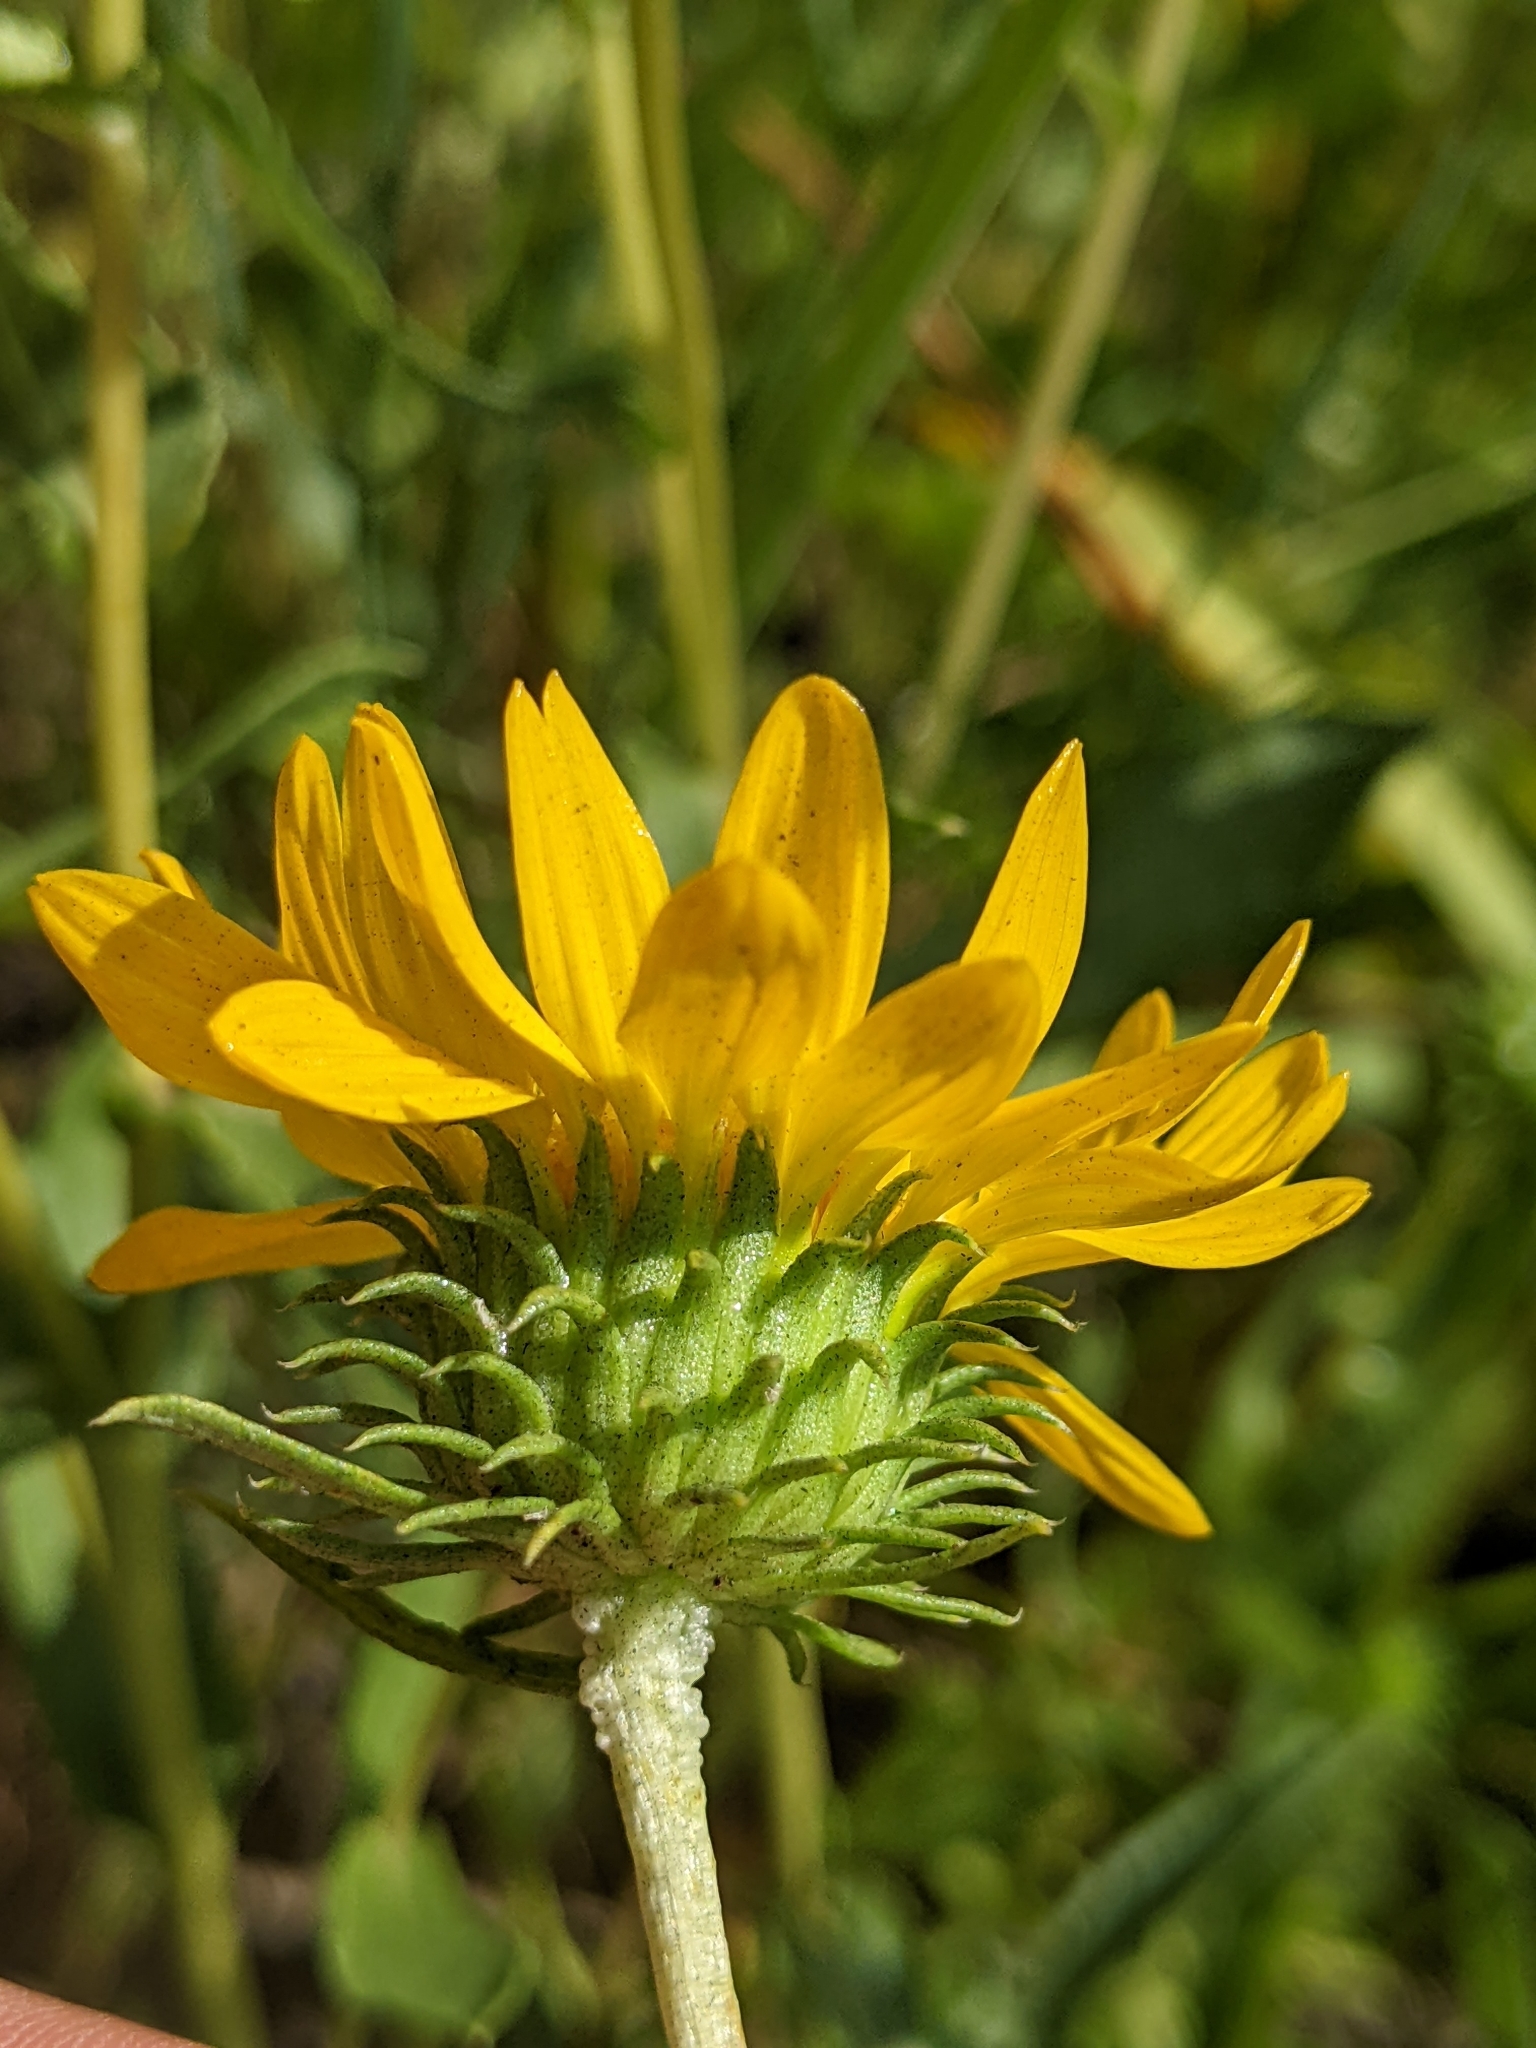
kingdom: Plantae
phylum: Tracheophyta
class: Magnoliopsida
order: Asterales
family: Asteraceae
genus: Grindelia
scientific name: Grindelia hirsutula
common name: Hairy gumweed
